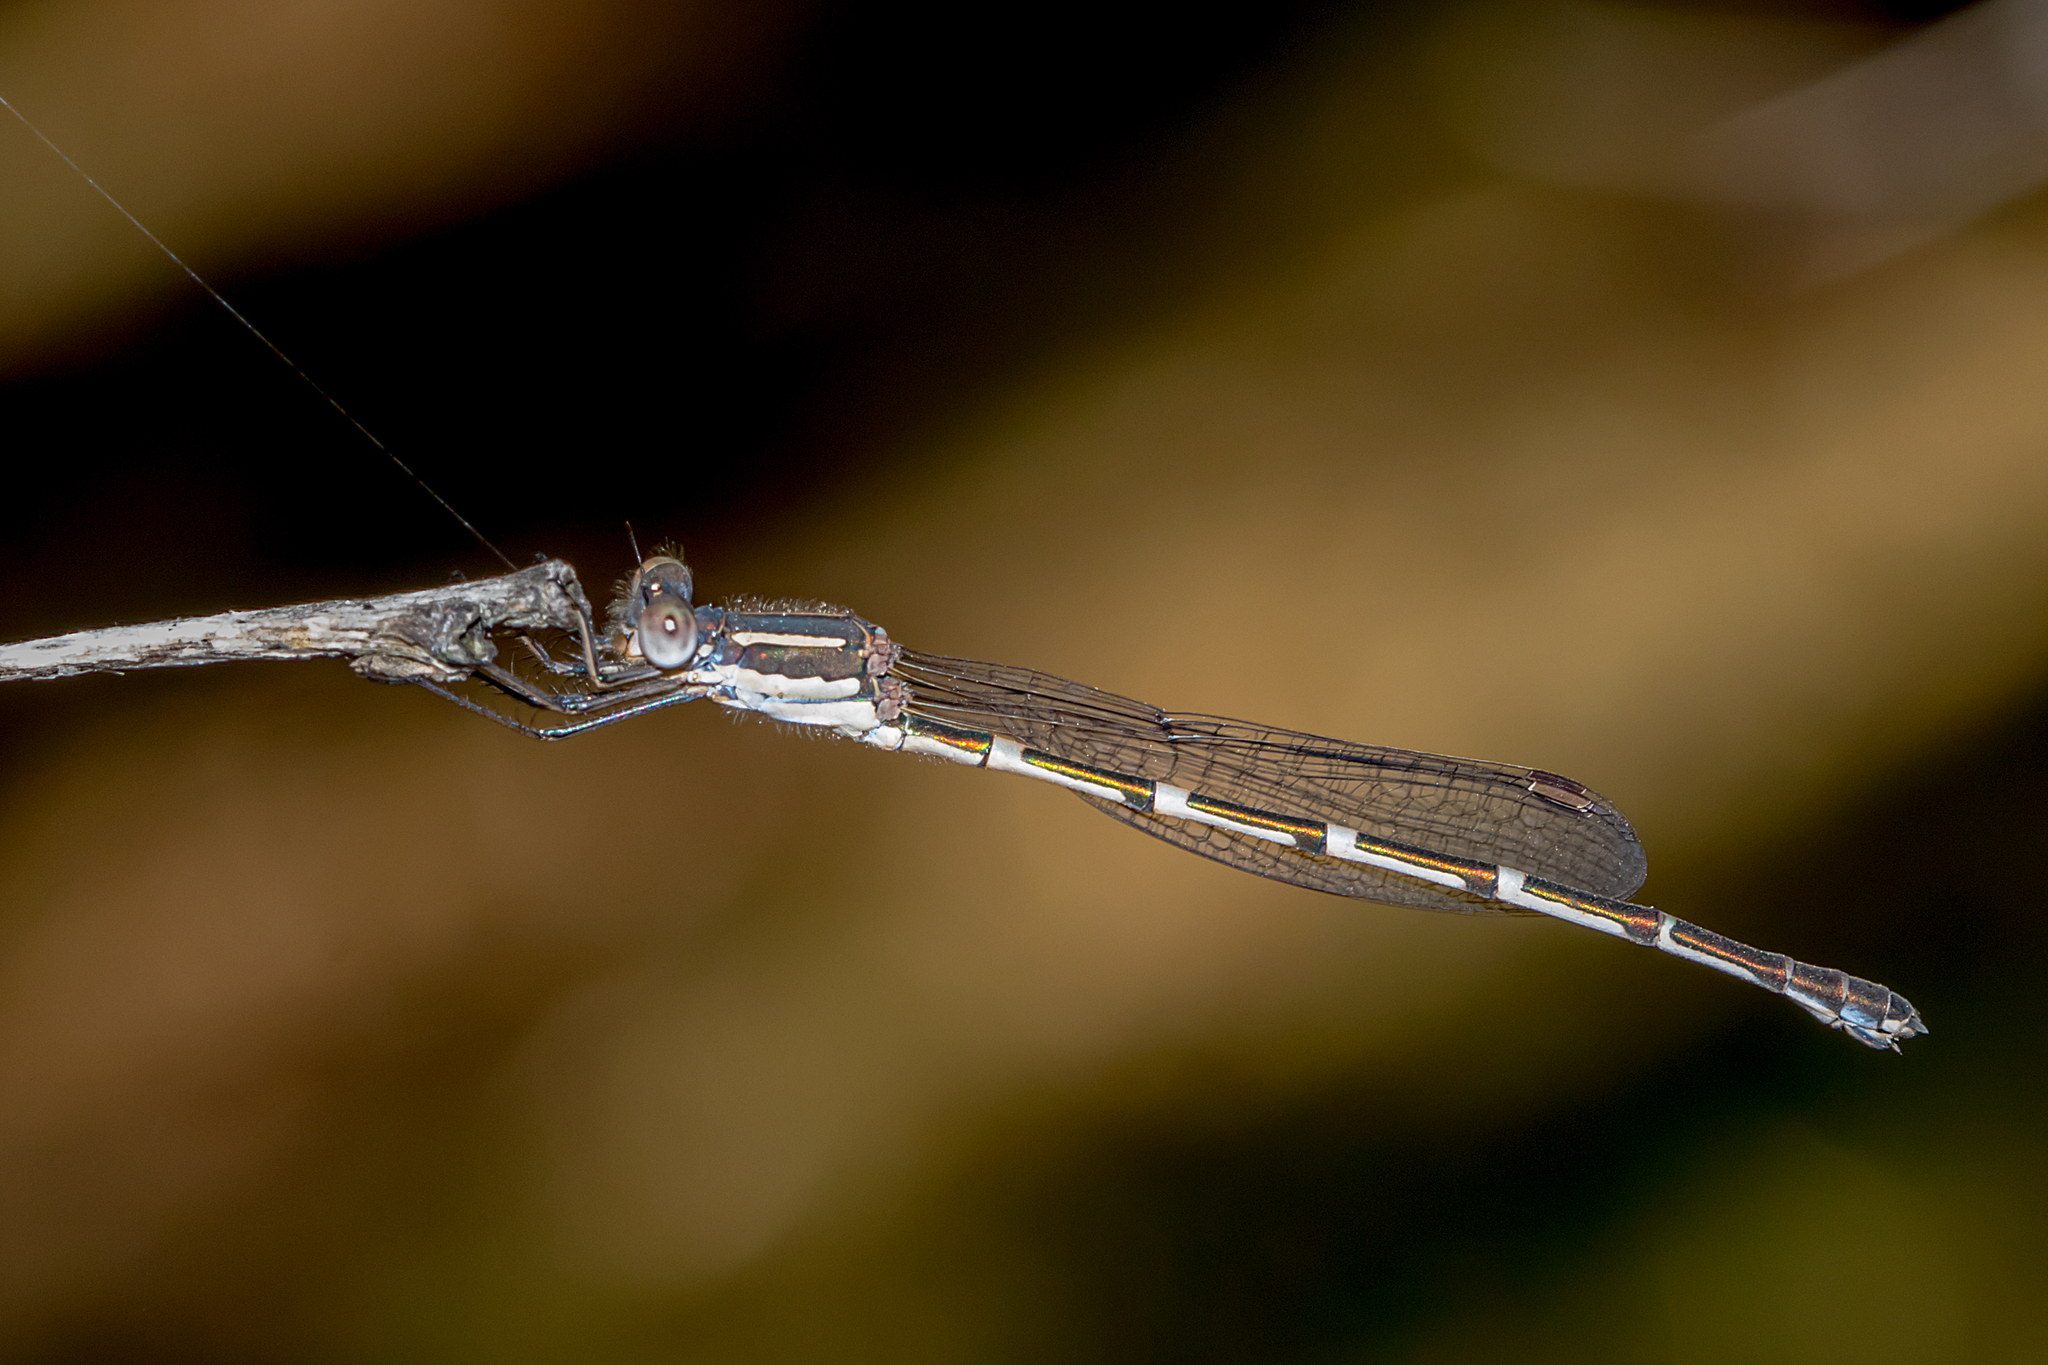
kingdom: Animalia
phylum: Arthropoda
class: Insecta
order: Odonata
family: Lestidae
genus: Austrolestes
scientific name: Austrolestes leda
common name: Wandering ringtail
